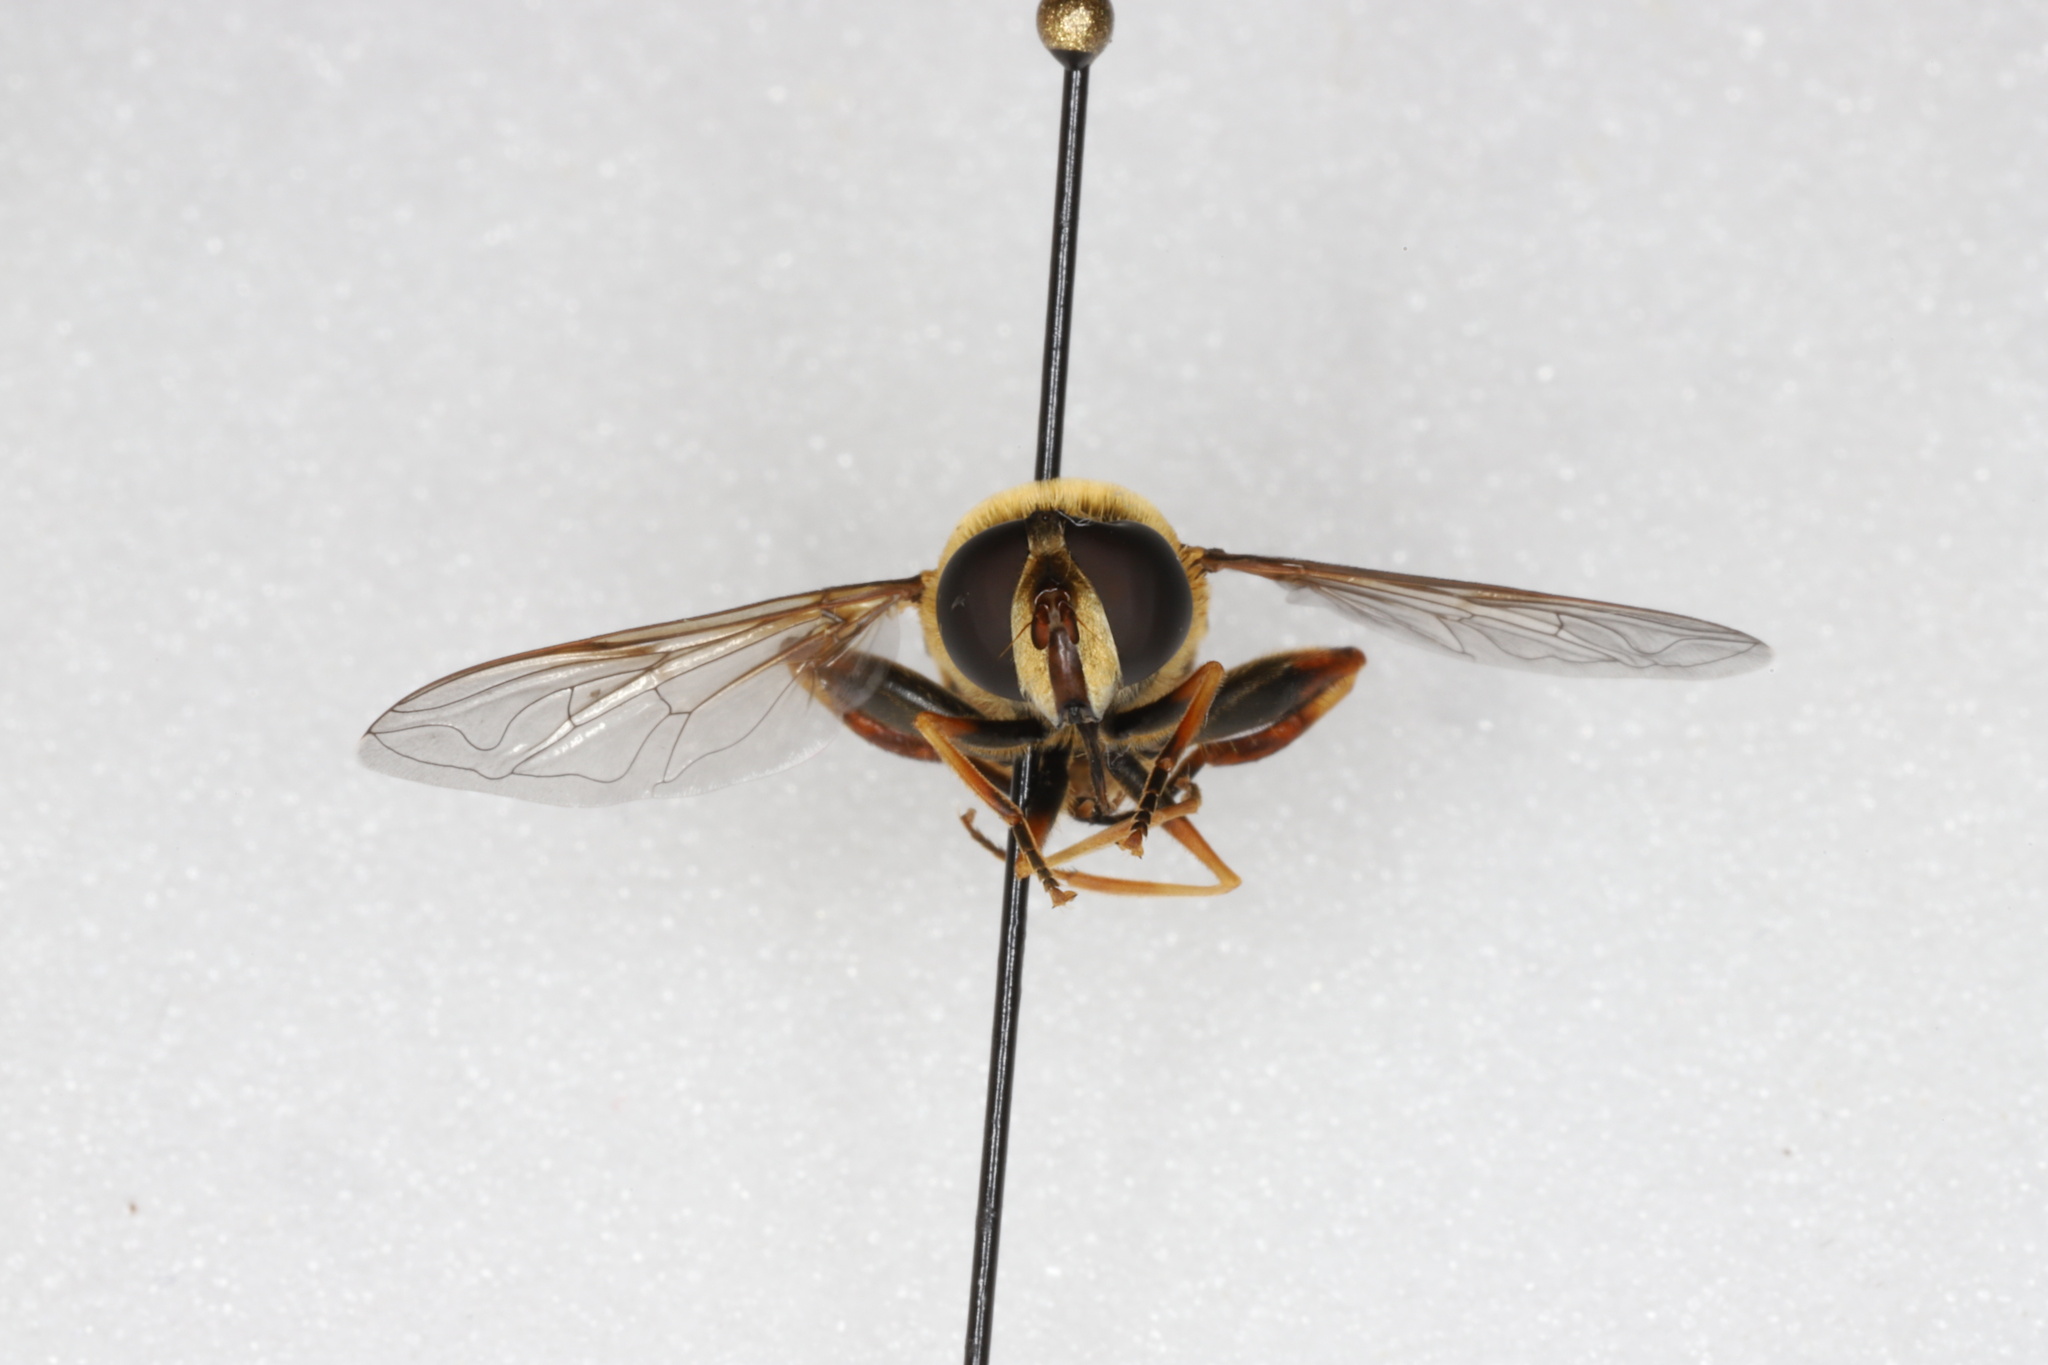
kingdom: Animalia
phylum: Arthropoda
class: Insecta
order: Diptera
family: Syrphidae
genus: Helophilus
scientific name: Helophilus fasciatus
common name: Narrow-headed marsh fly
